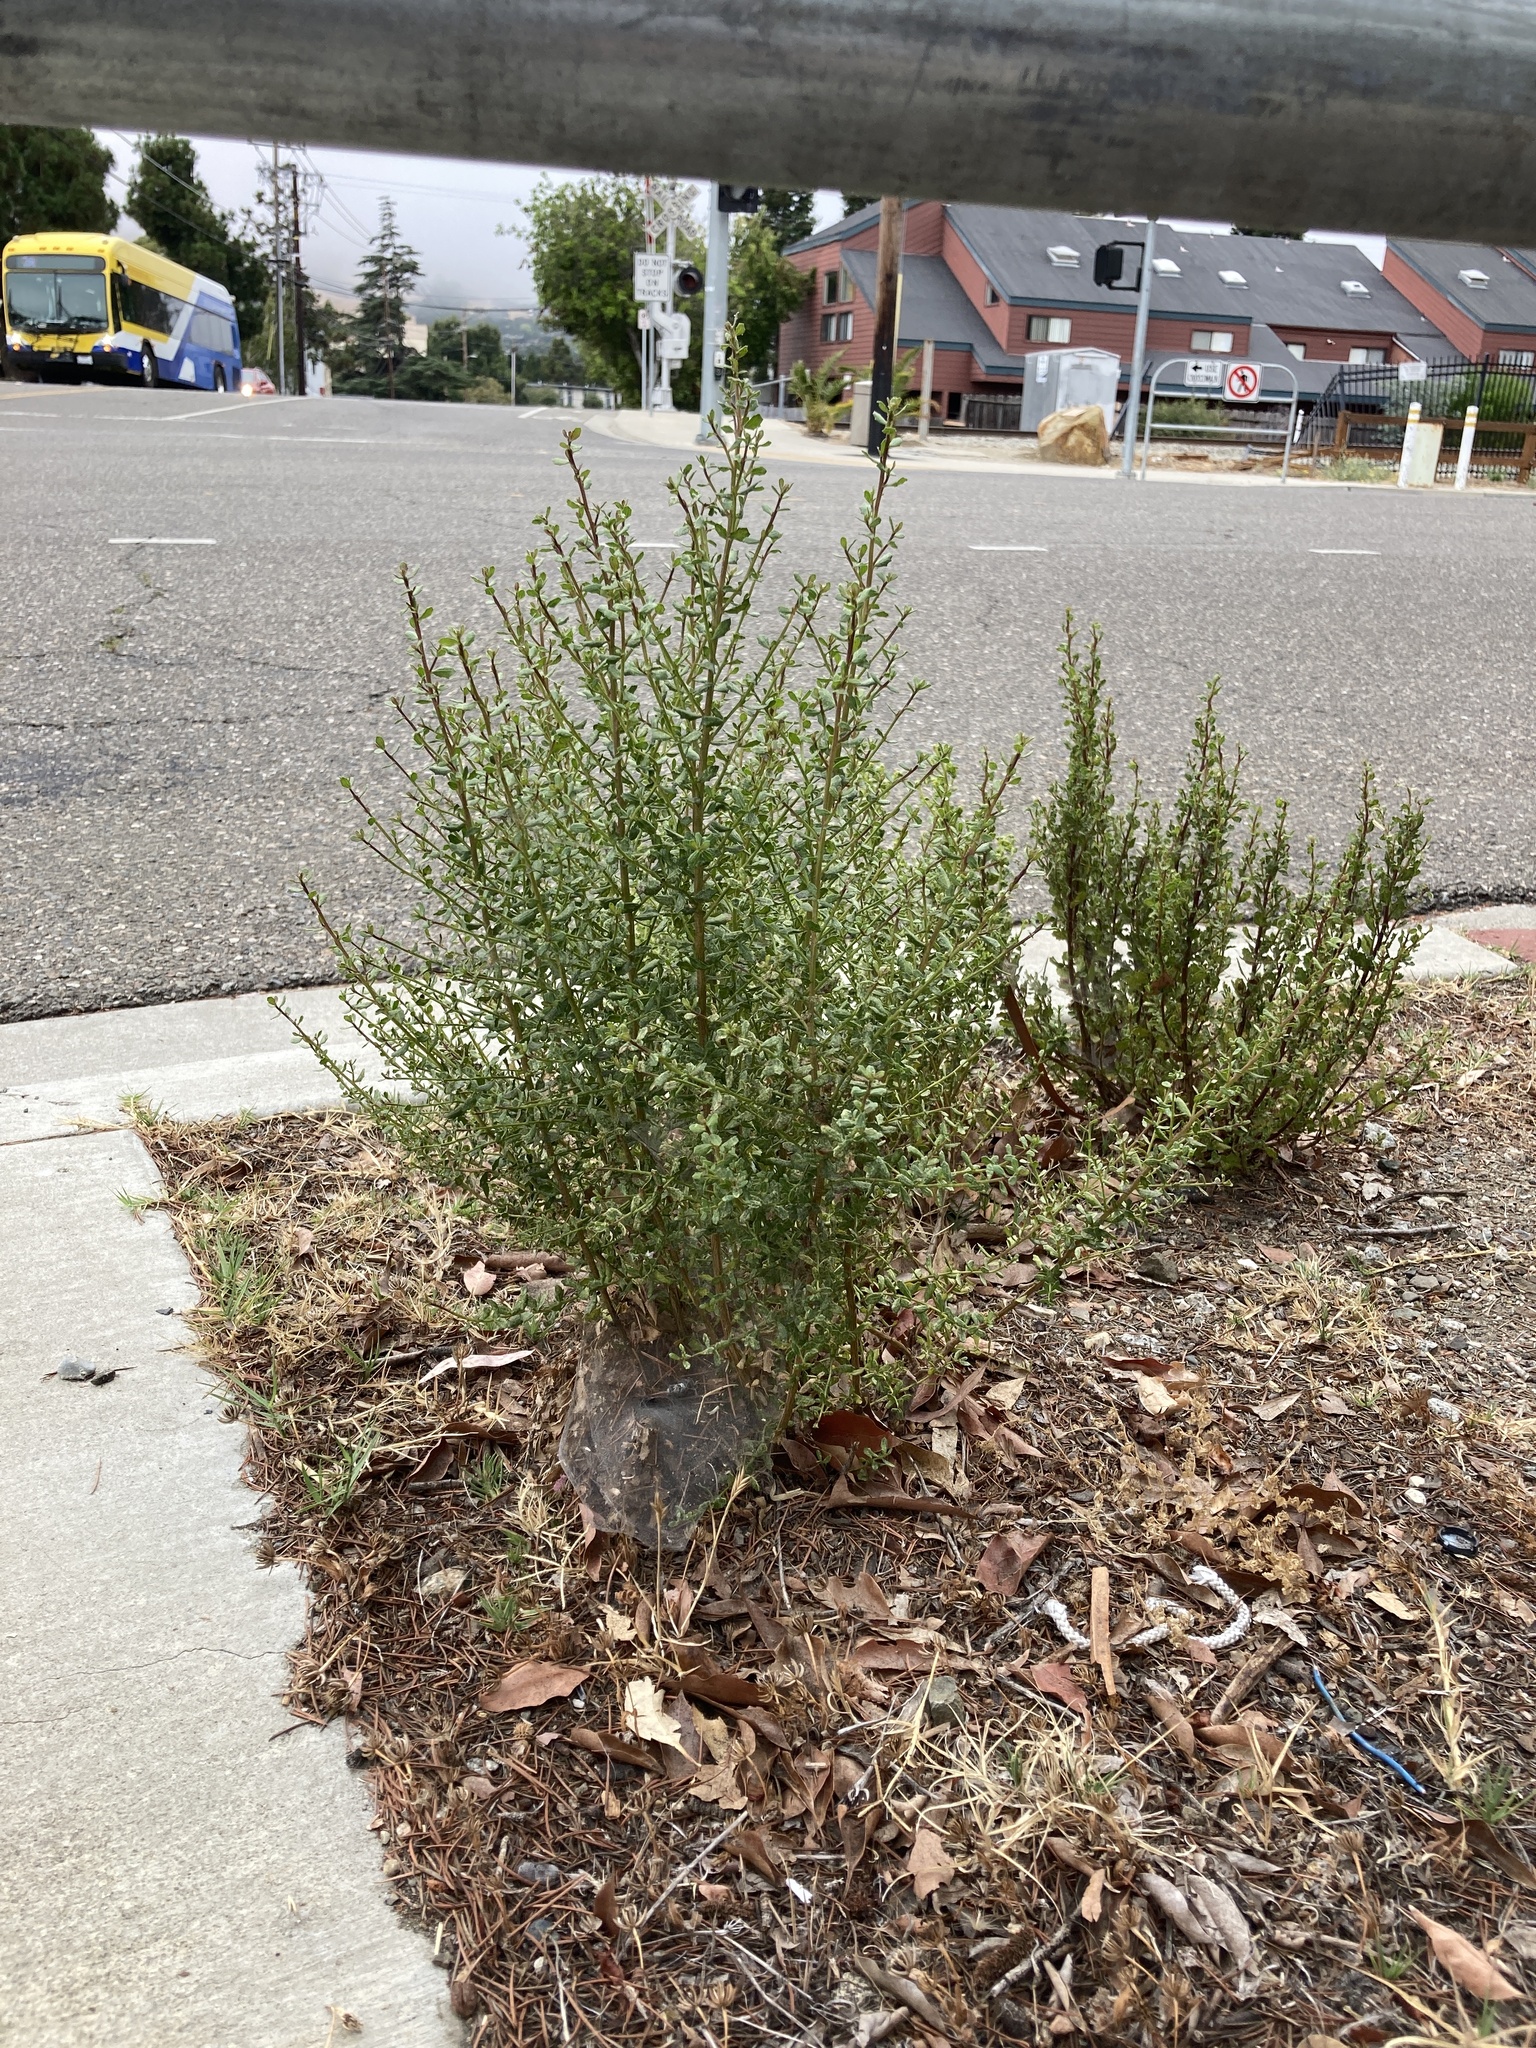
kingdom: Plantae
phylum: Tracheophyta
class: Magnoliopsida
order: Asterales
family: Asteraceae
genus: Baccharis
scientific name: Baccharis pilularis
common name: Coyotebrush
